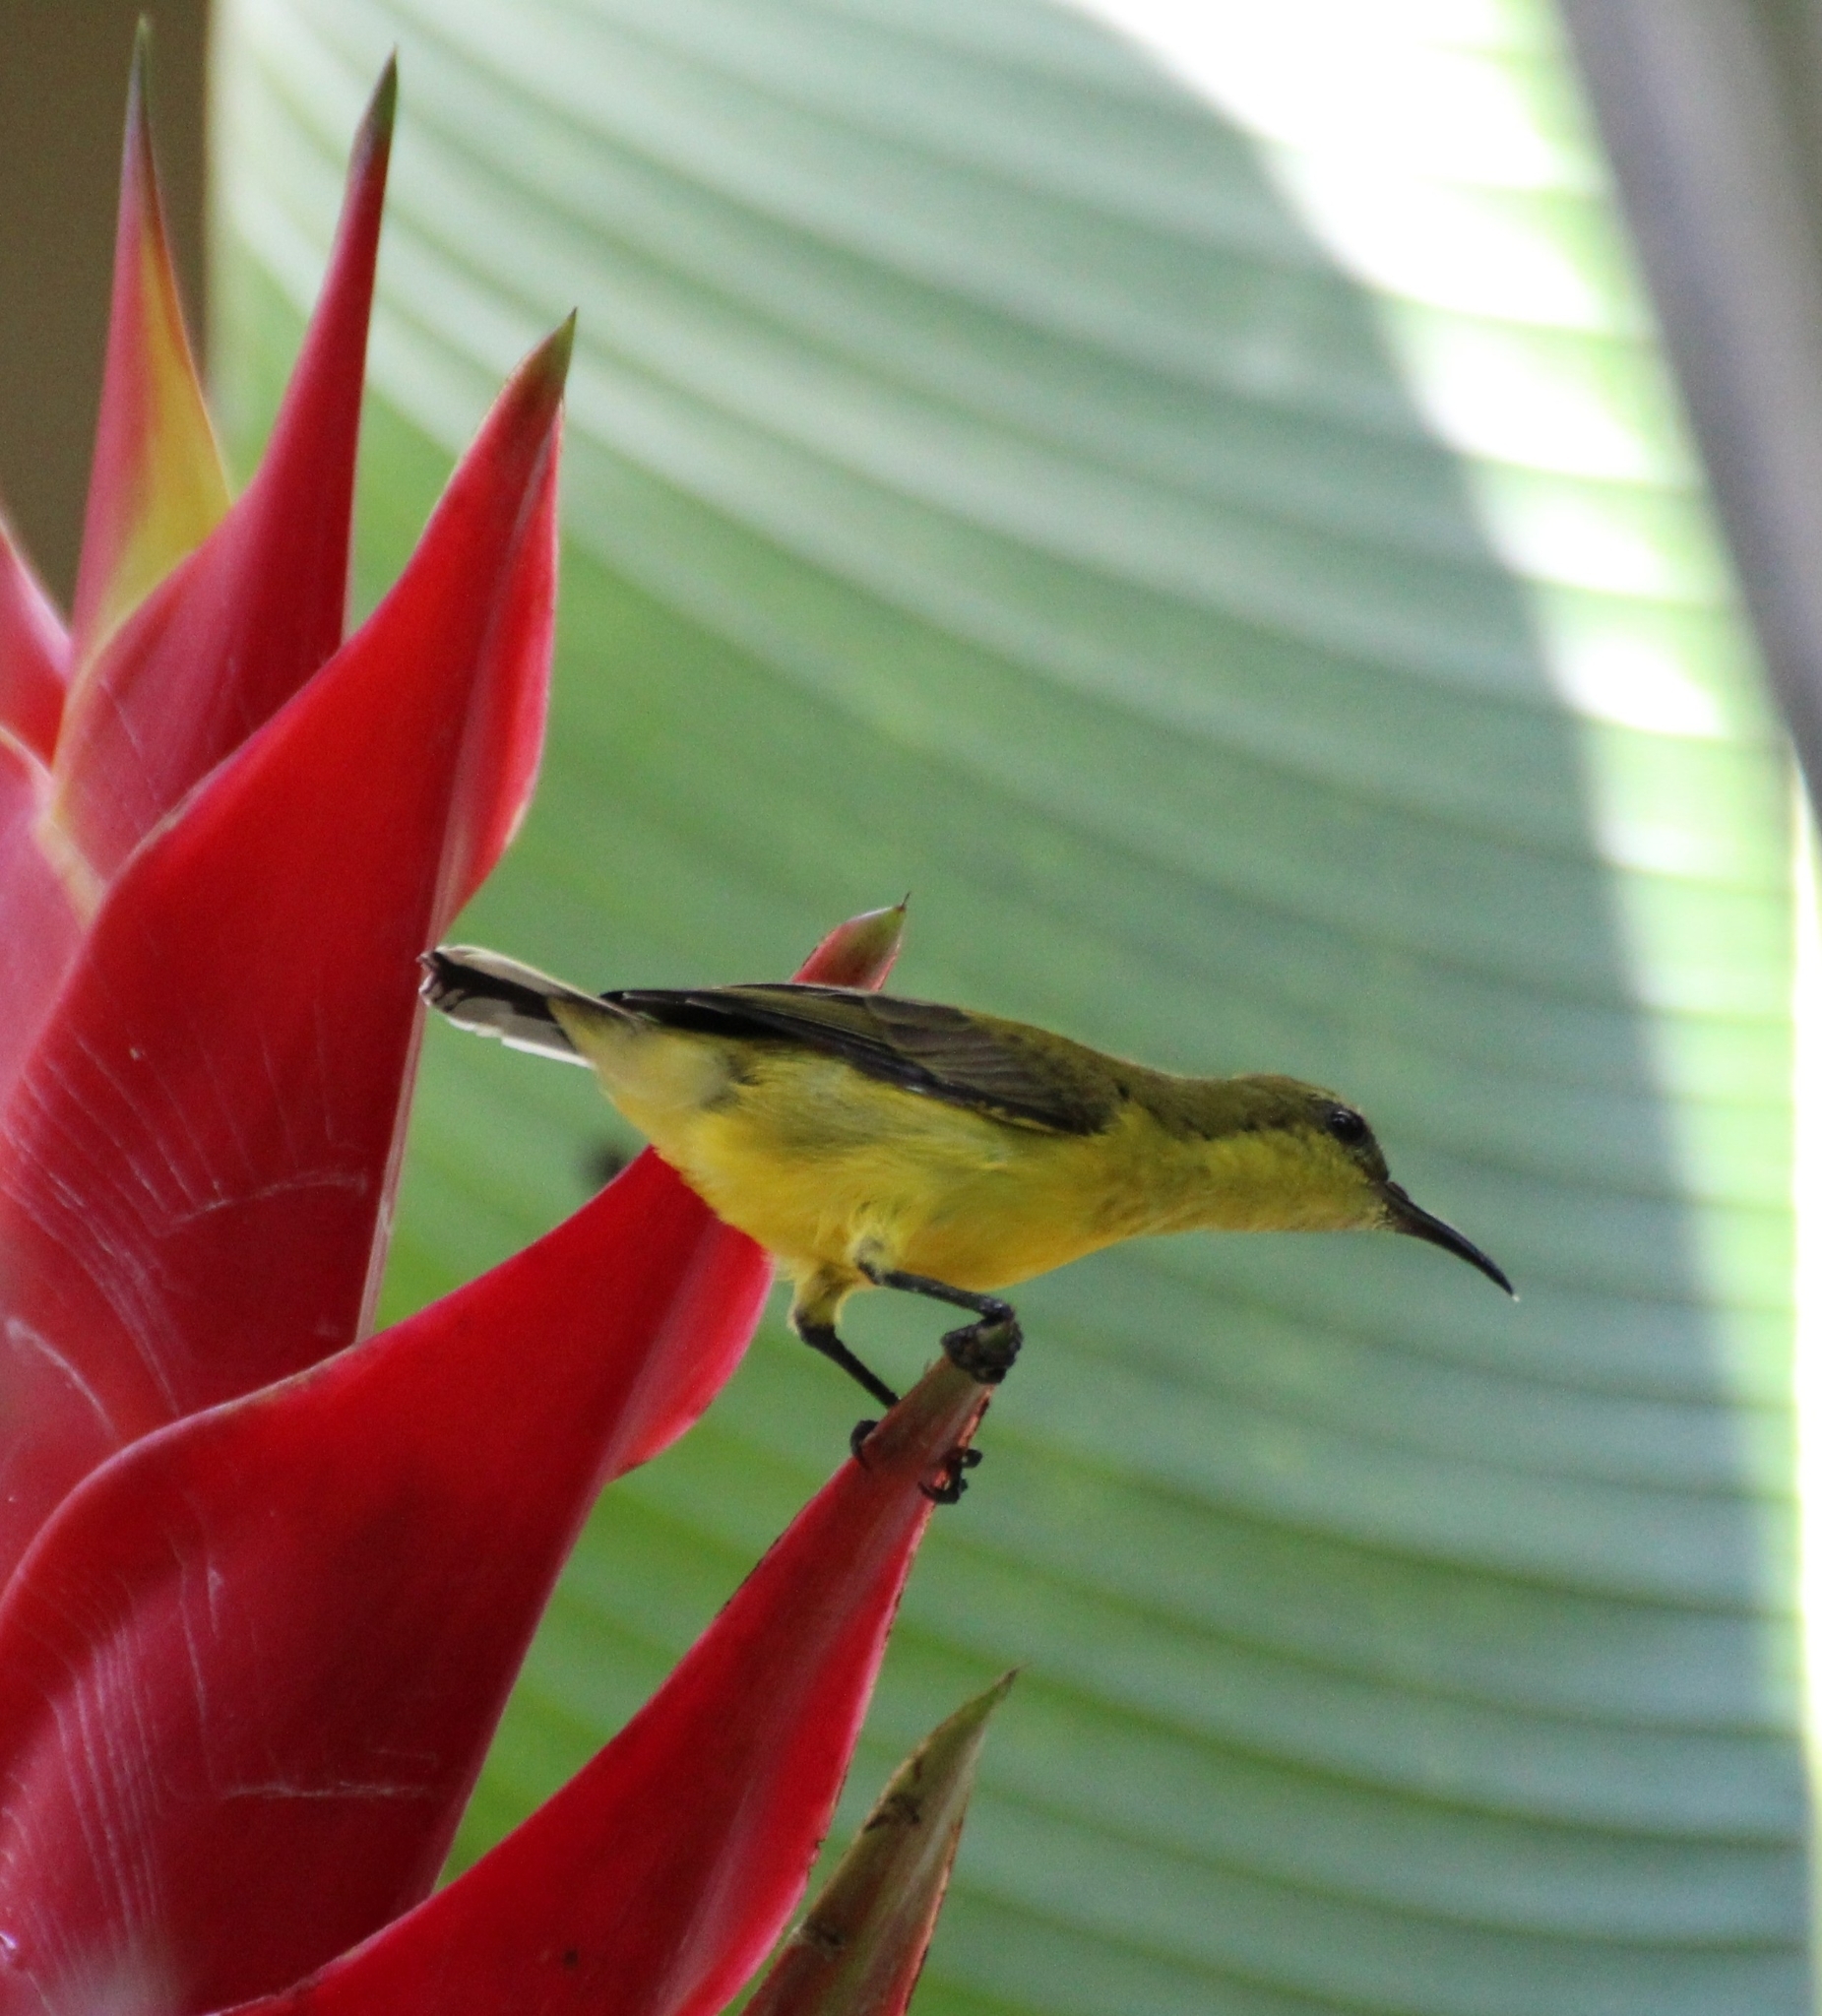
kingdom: Animalia
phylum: Chordata
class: Aves
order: Passeriformes
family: Nectariniidae
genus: Cinnyris
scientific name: Cinnyris
